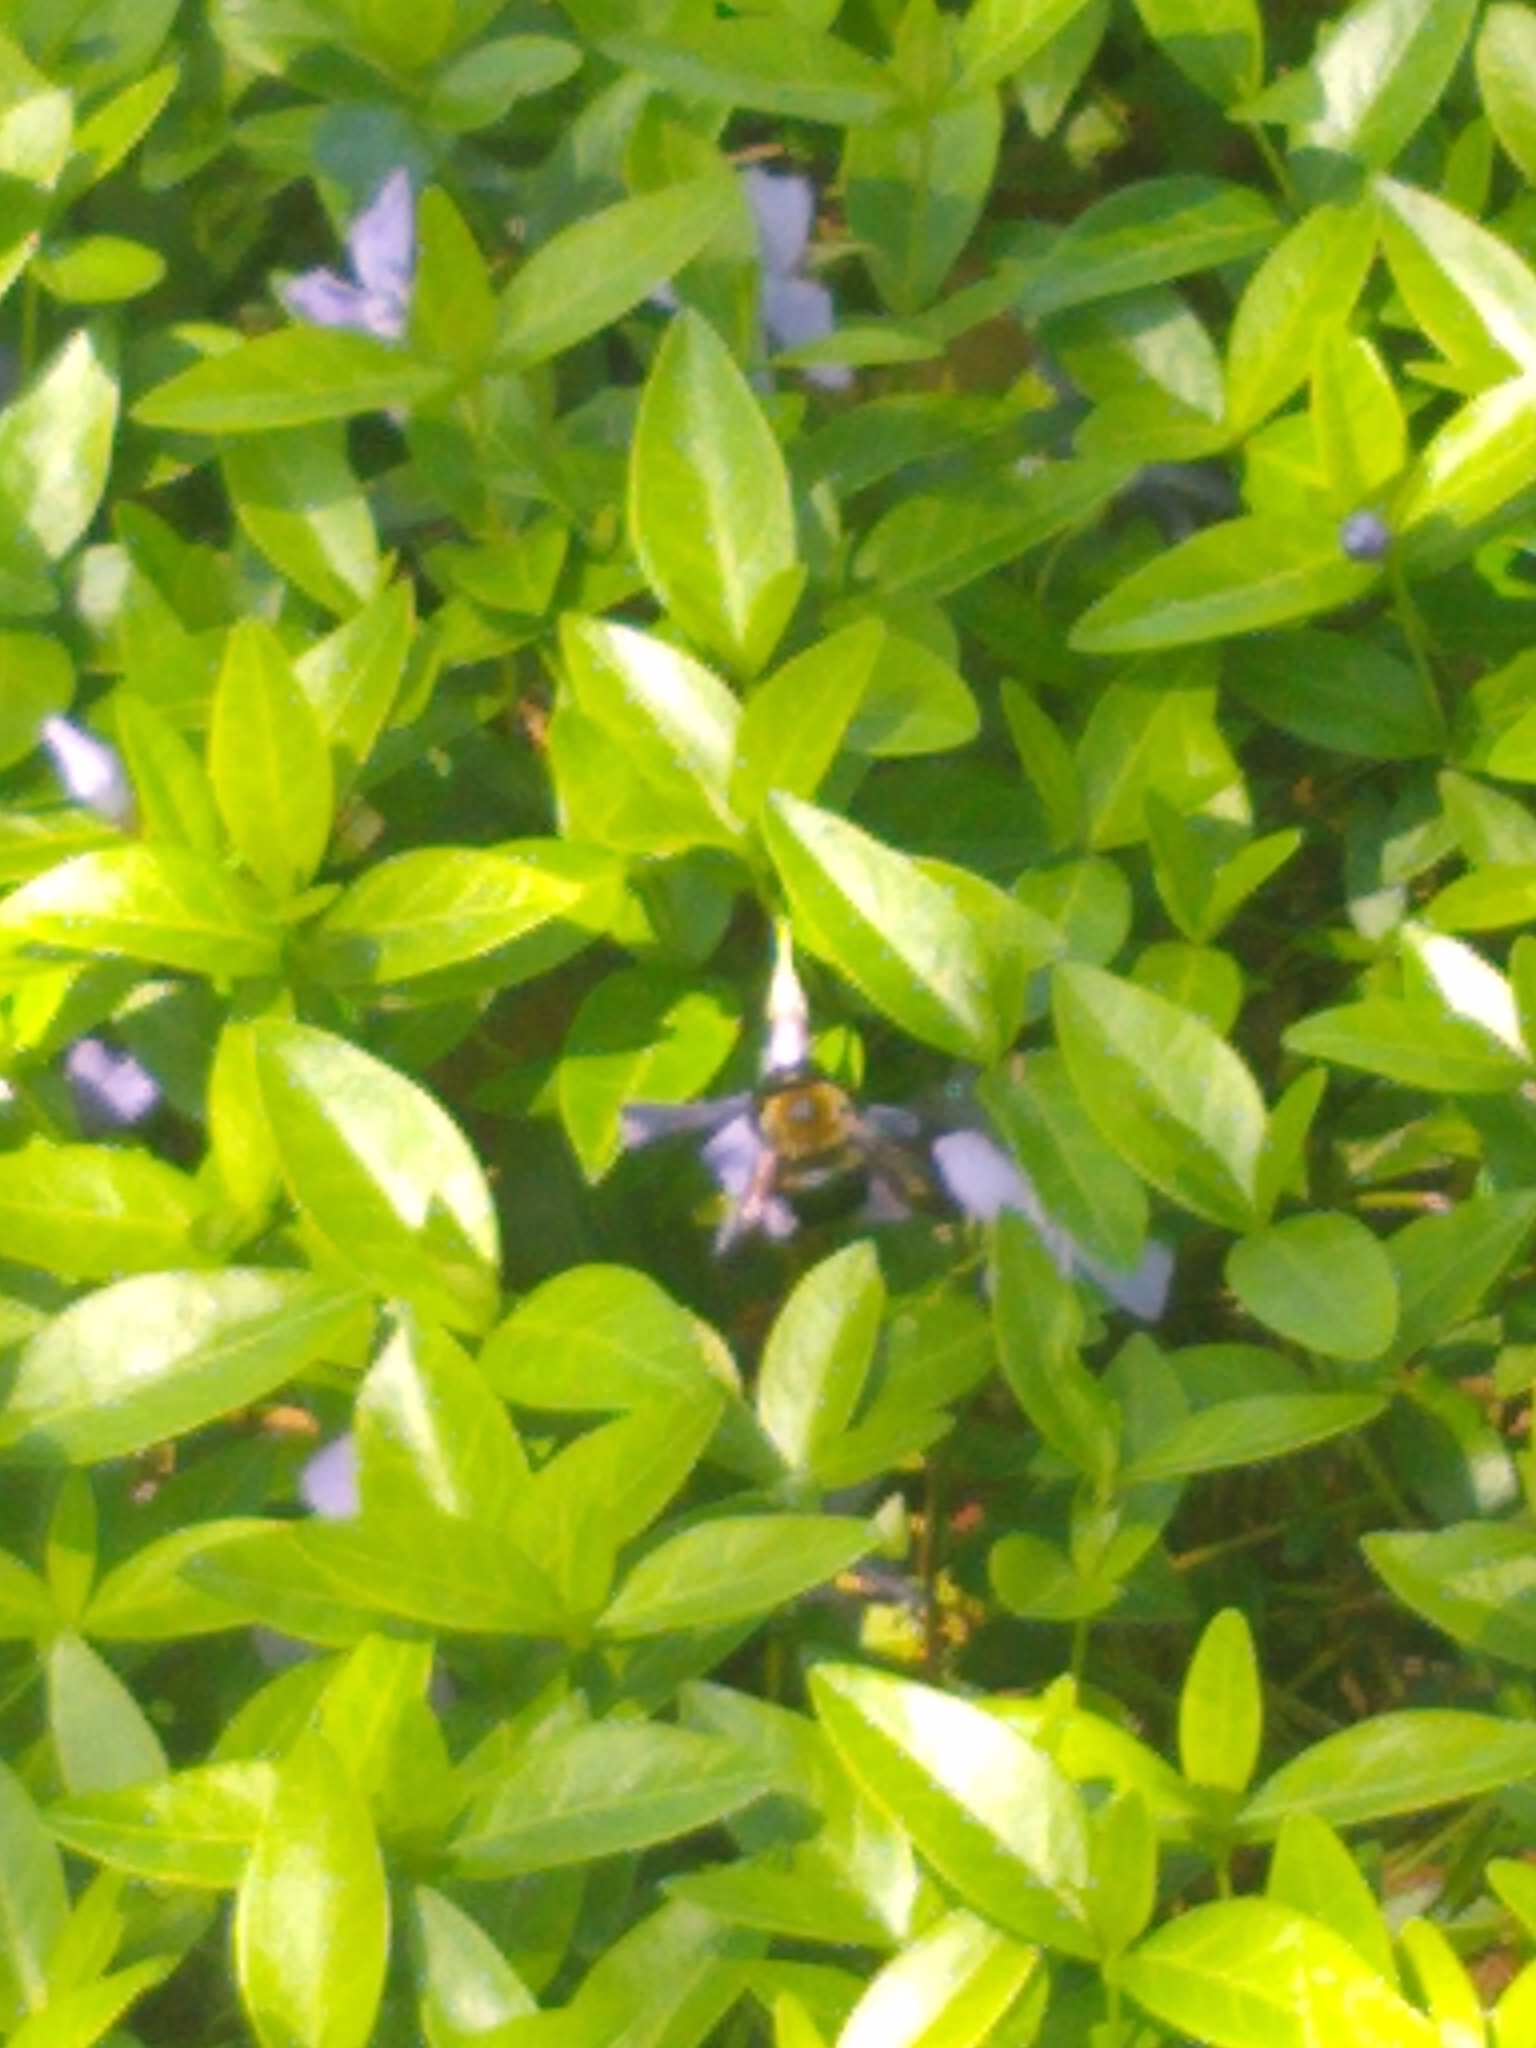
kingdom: Animalia
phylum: Arthropoda
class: Insecta
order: Hymenoptera
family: Apidae
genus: Xylocopa
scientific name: Xylocopa virginica
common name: Carpenter bee
